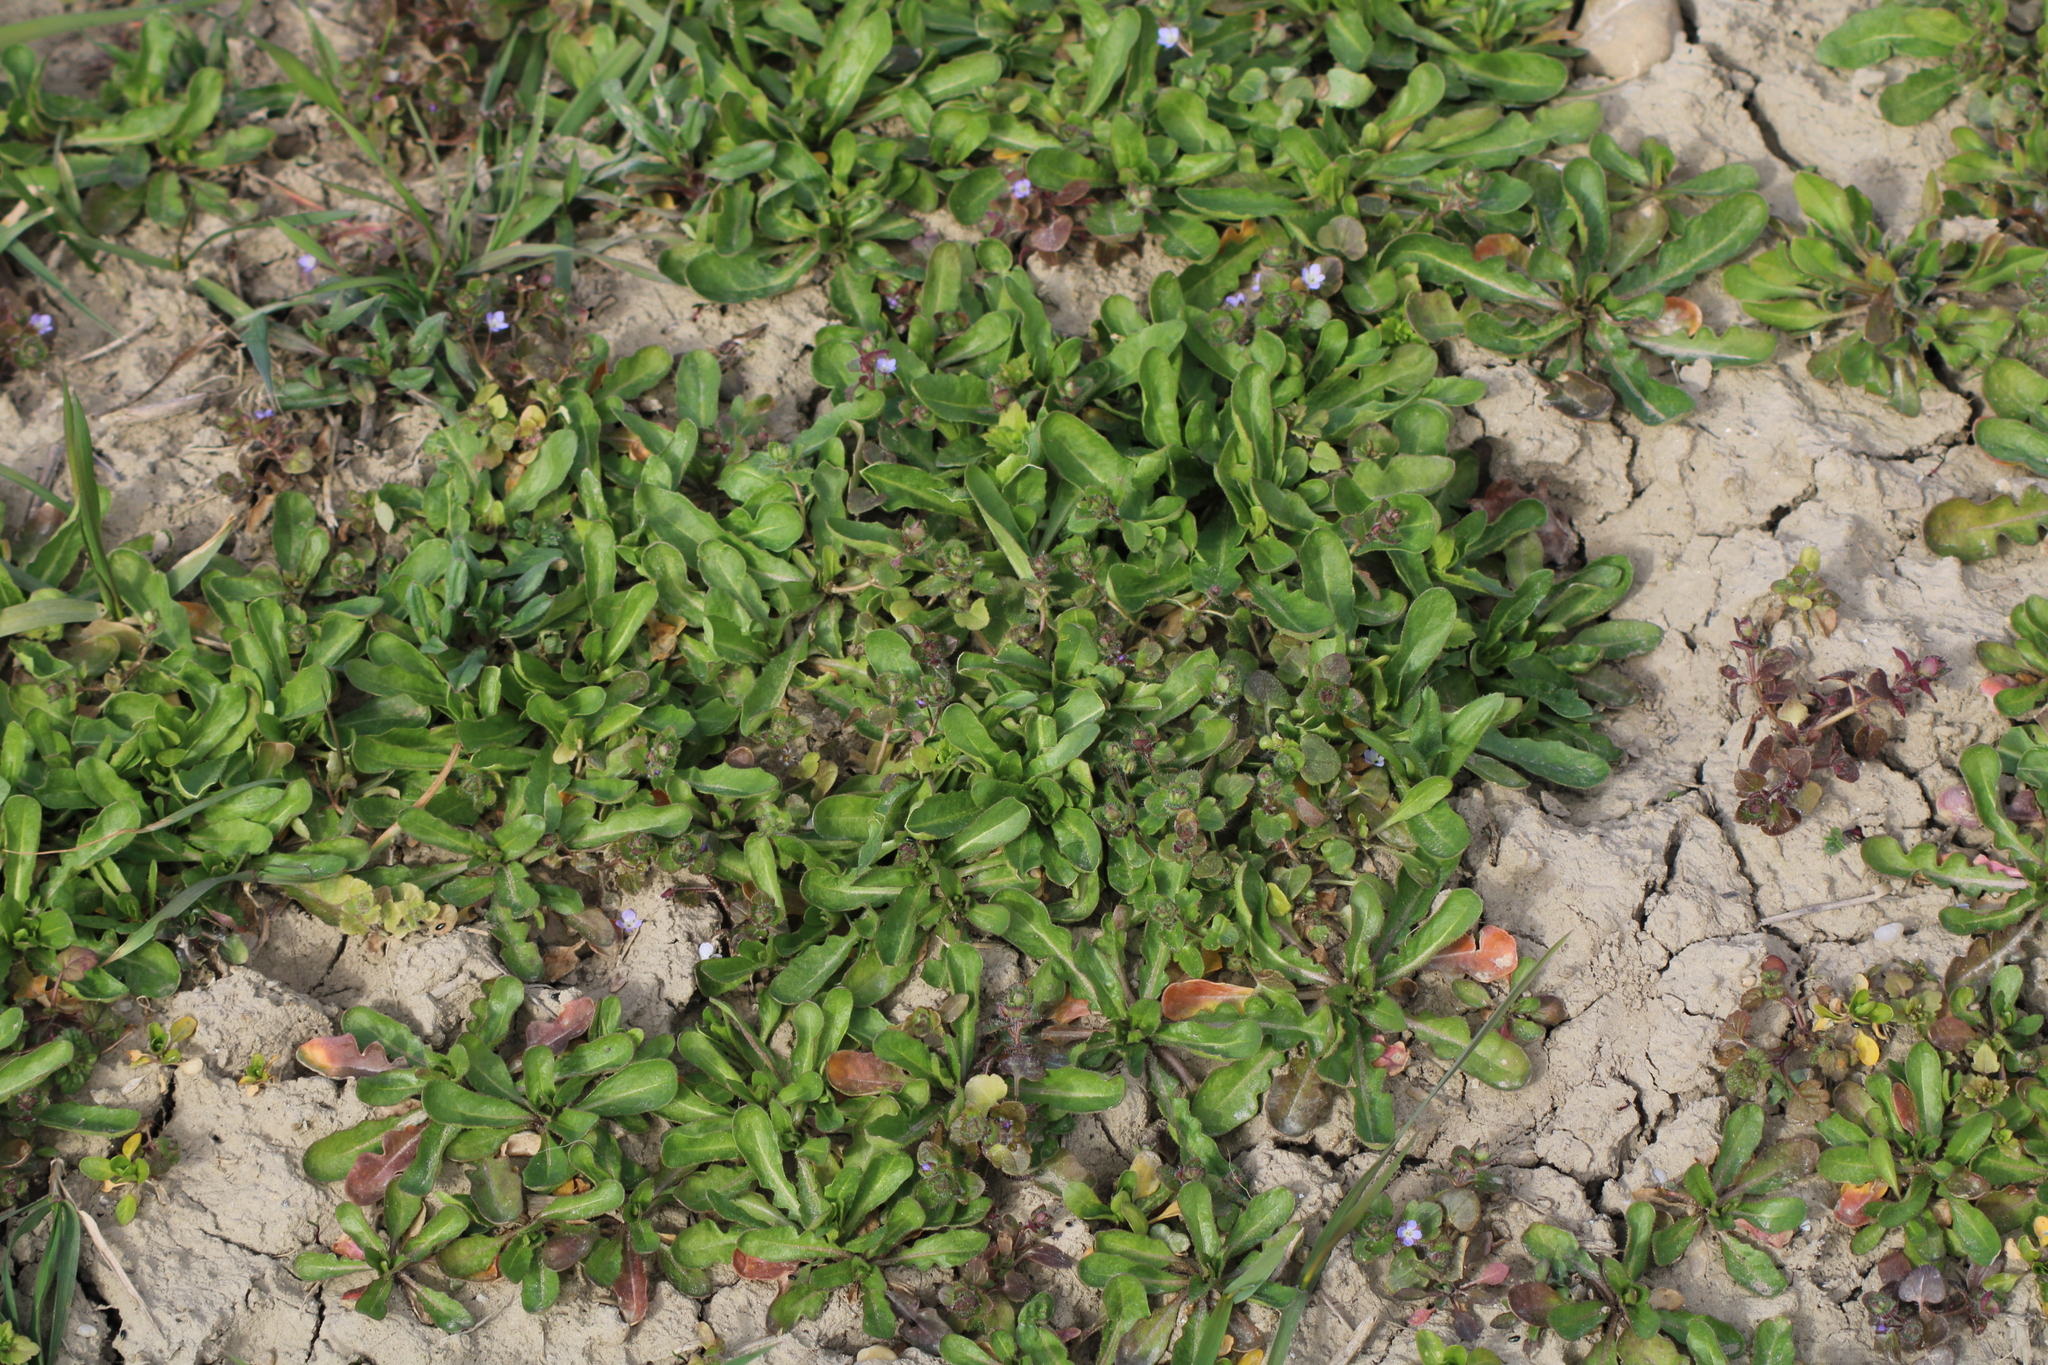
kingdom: Plantae
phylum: Tracheophyta
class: Magnoliopsida
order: Lamiales
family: Plantaginaceae
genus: Veronica
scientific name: Veronica hederifolia
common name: Ivy-leaved speedwell
